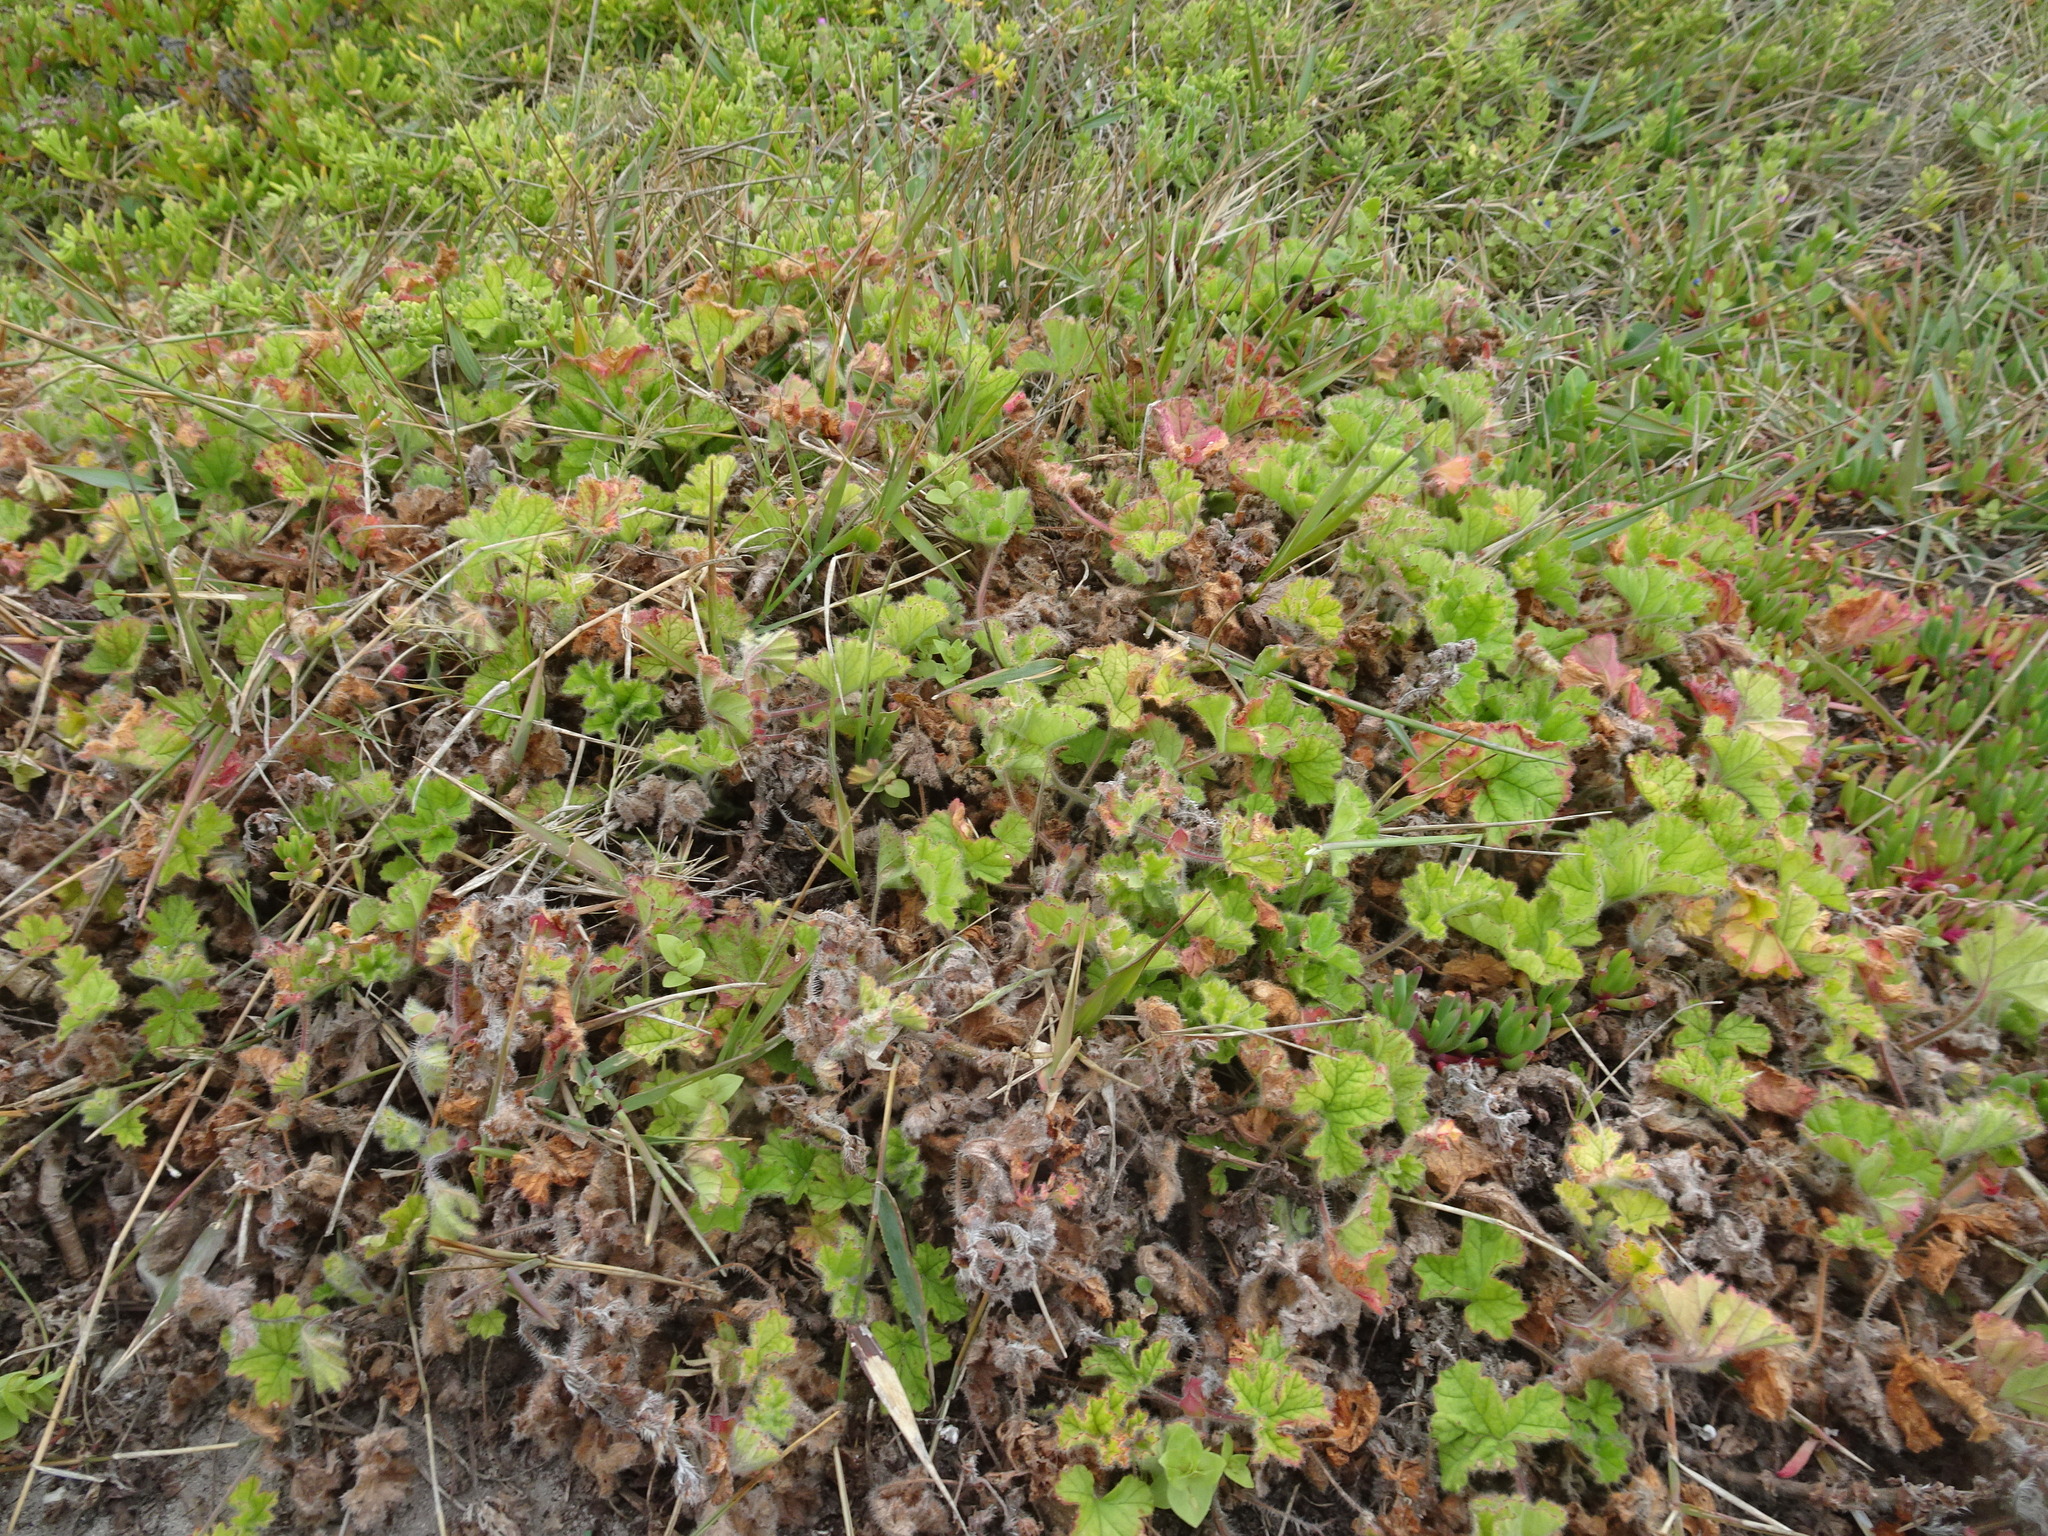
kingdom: Plantae
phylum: Tracheophyta
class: Magnoliopsida
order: Geraniales
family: Geraniaceae
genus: Pelargonium
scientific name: Pelargonium capitatum
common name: Rose scented geranium
